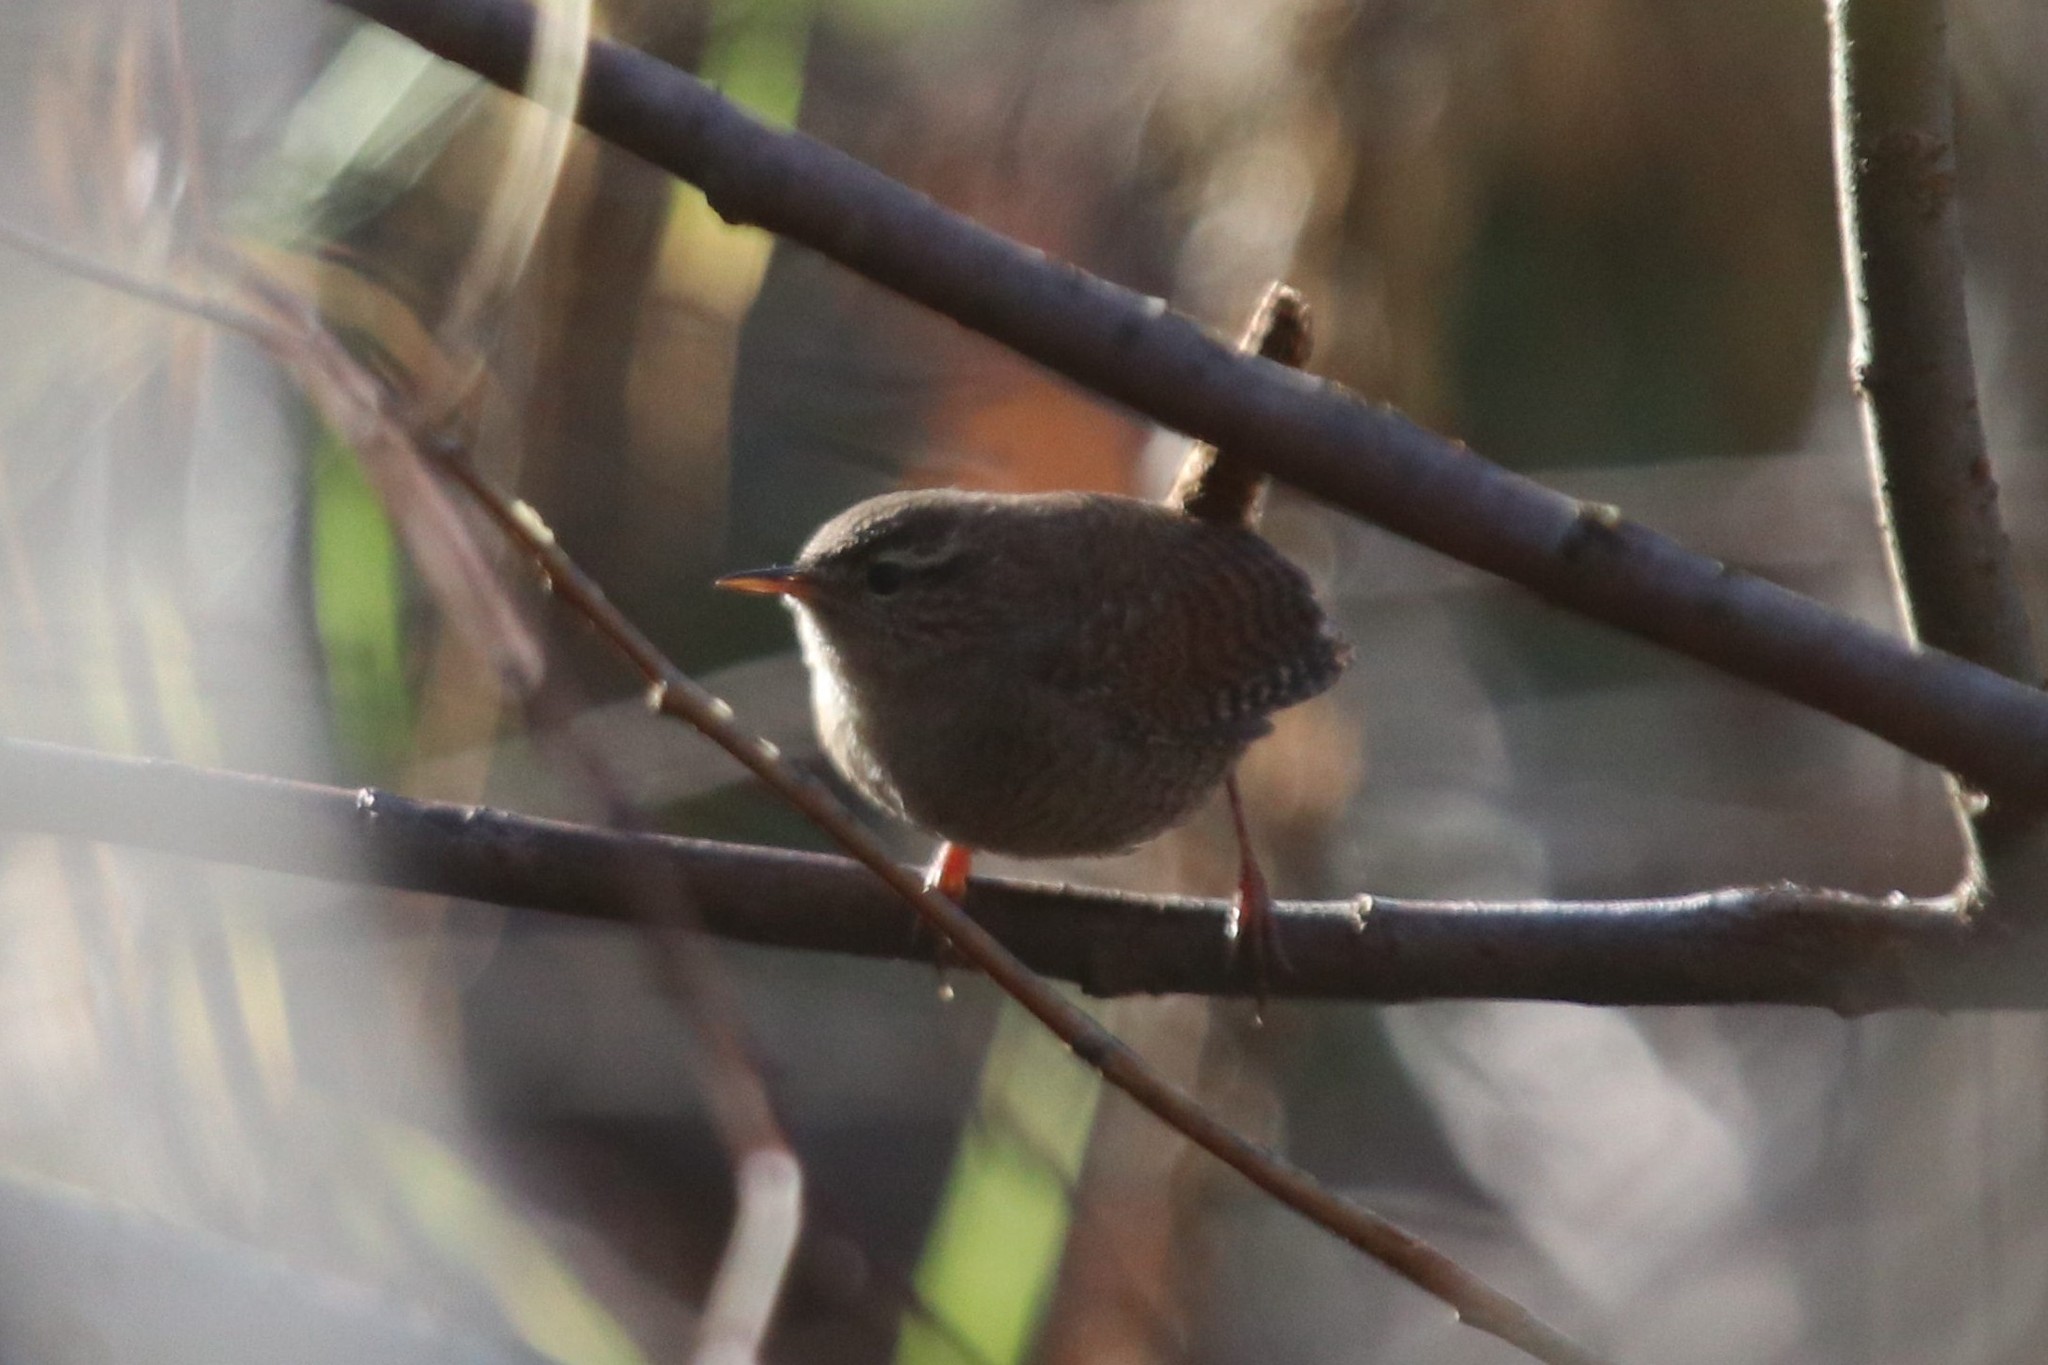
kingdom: Animalia
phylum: Chordata
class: Aves
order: Passeriformes
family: Troglodytidae
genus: Troglodytes
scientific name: Troglodytes troglodytes
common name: Eurasian wren
